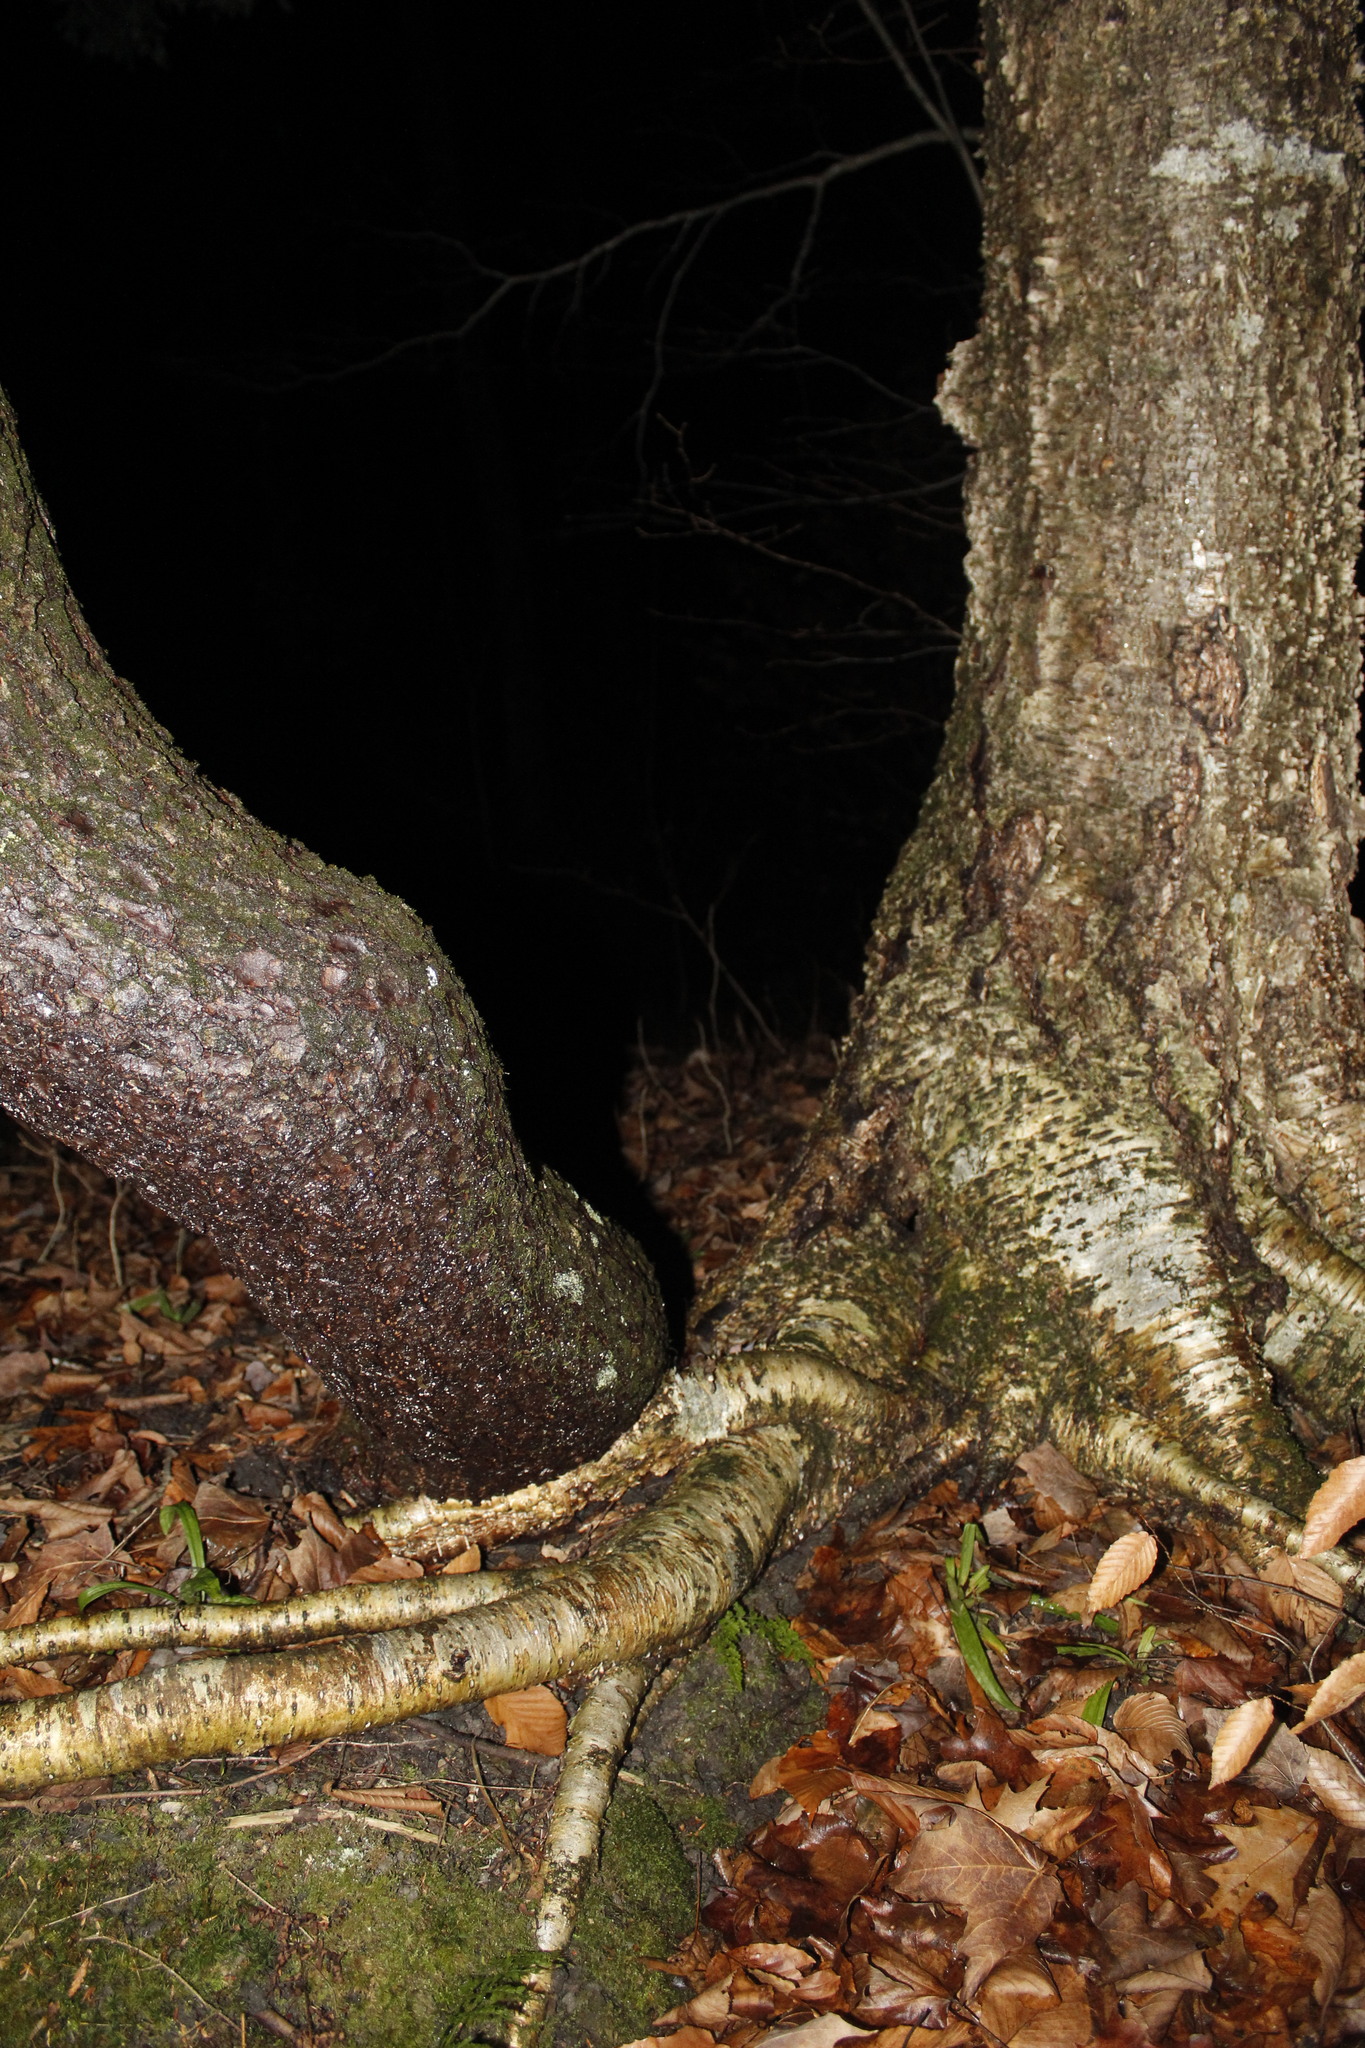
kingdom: Plantae
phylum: Tracheophyta
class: Pinopsida
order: Pinales
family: Pinaceae
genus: Pinus
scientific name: Pinus strobus
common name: Weymouth pine
